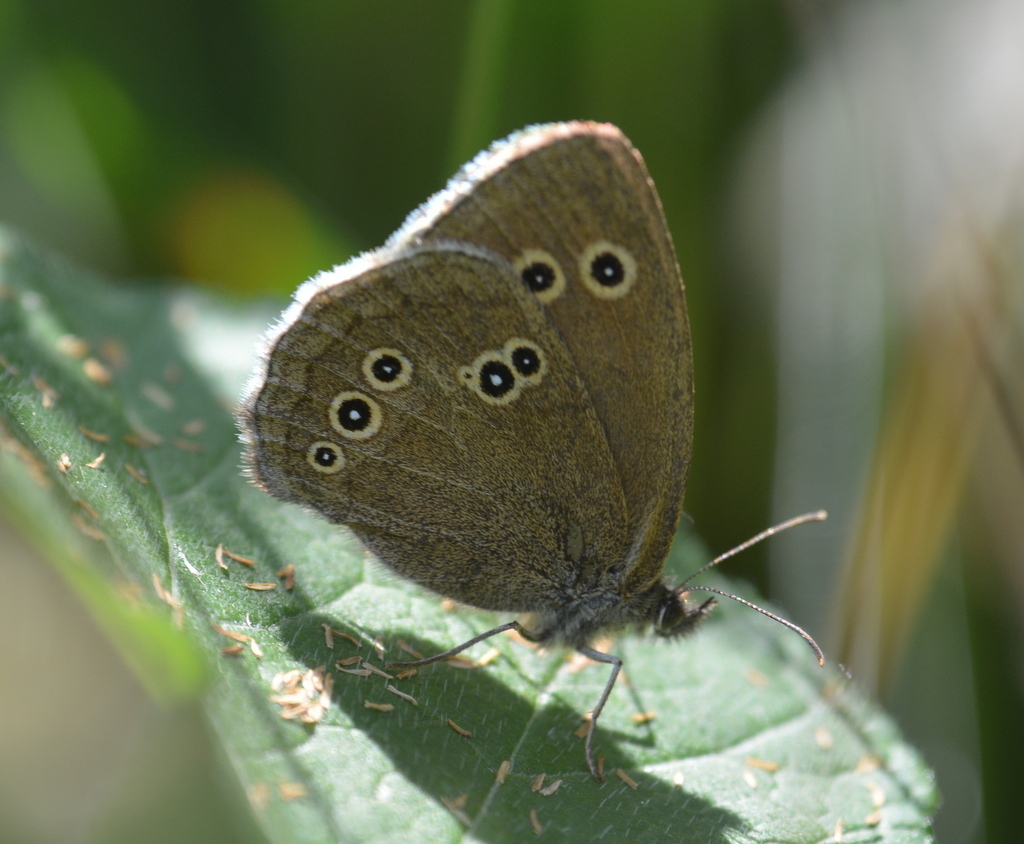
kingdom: Animalia
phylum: Arthropoda
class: Insecta
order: Lepidoptera
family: Nymphalidae
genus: Aphantopus
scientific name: Aphantopus hyperantus
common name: Ringlet
